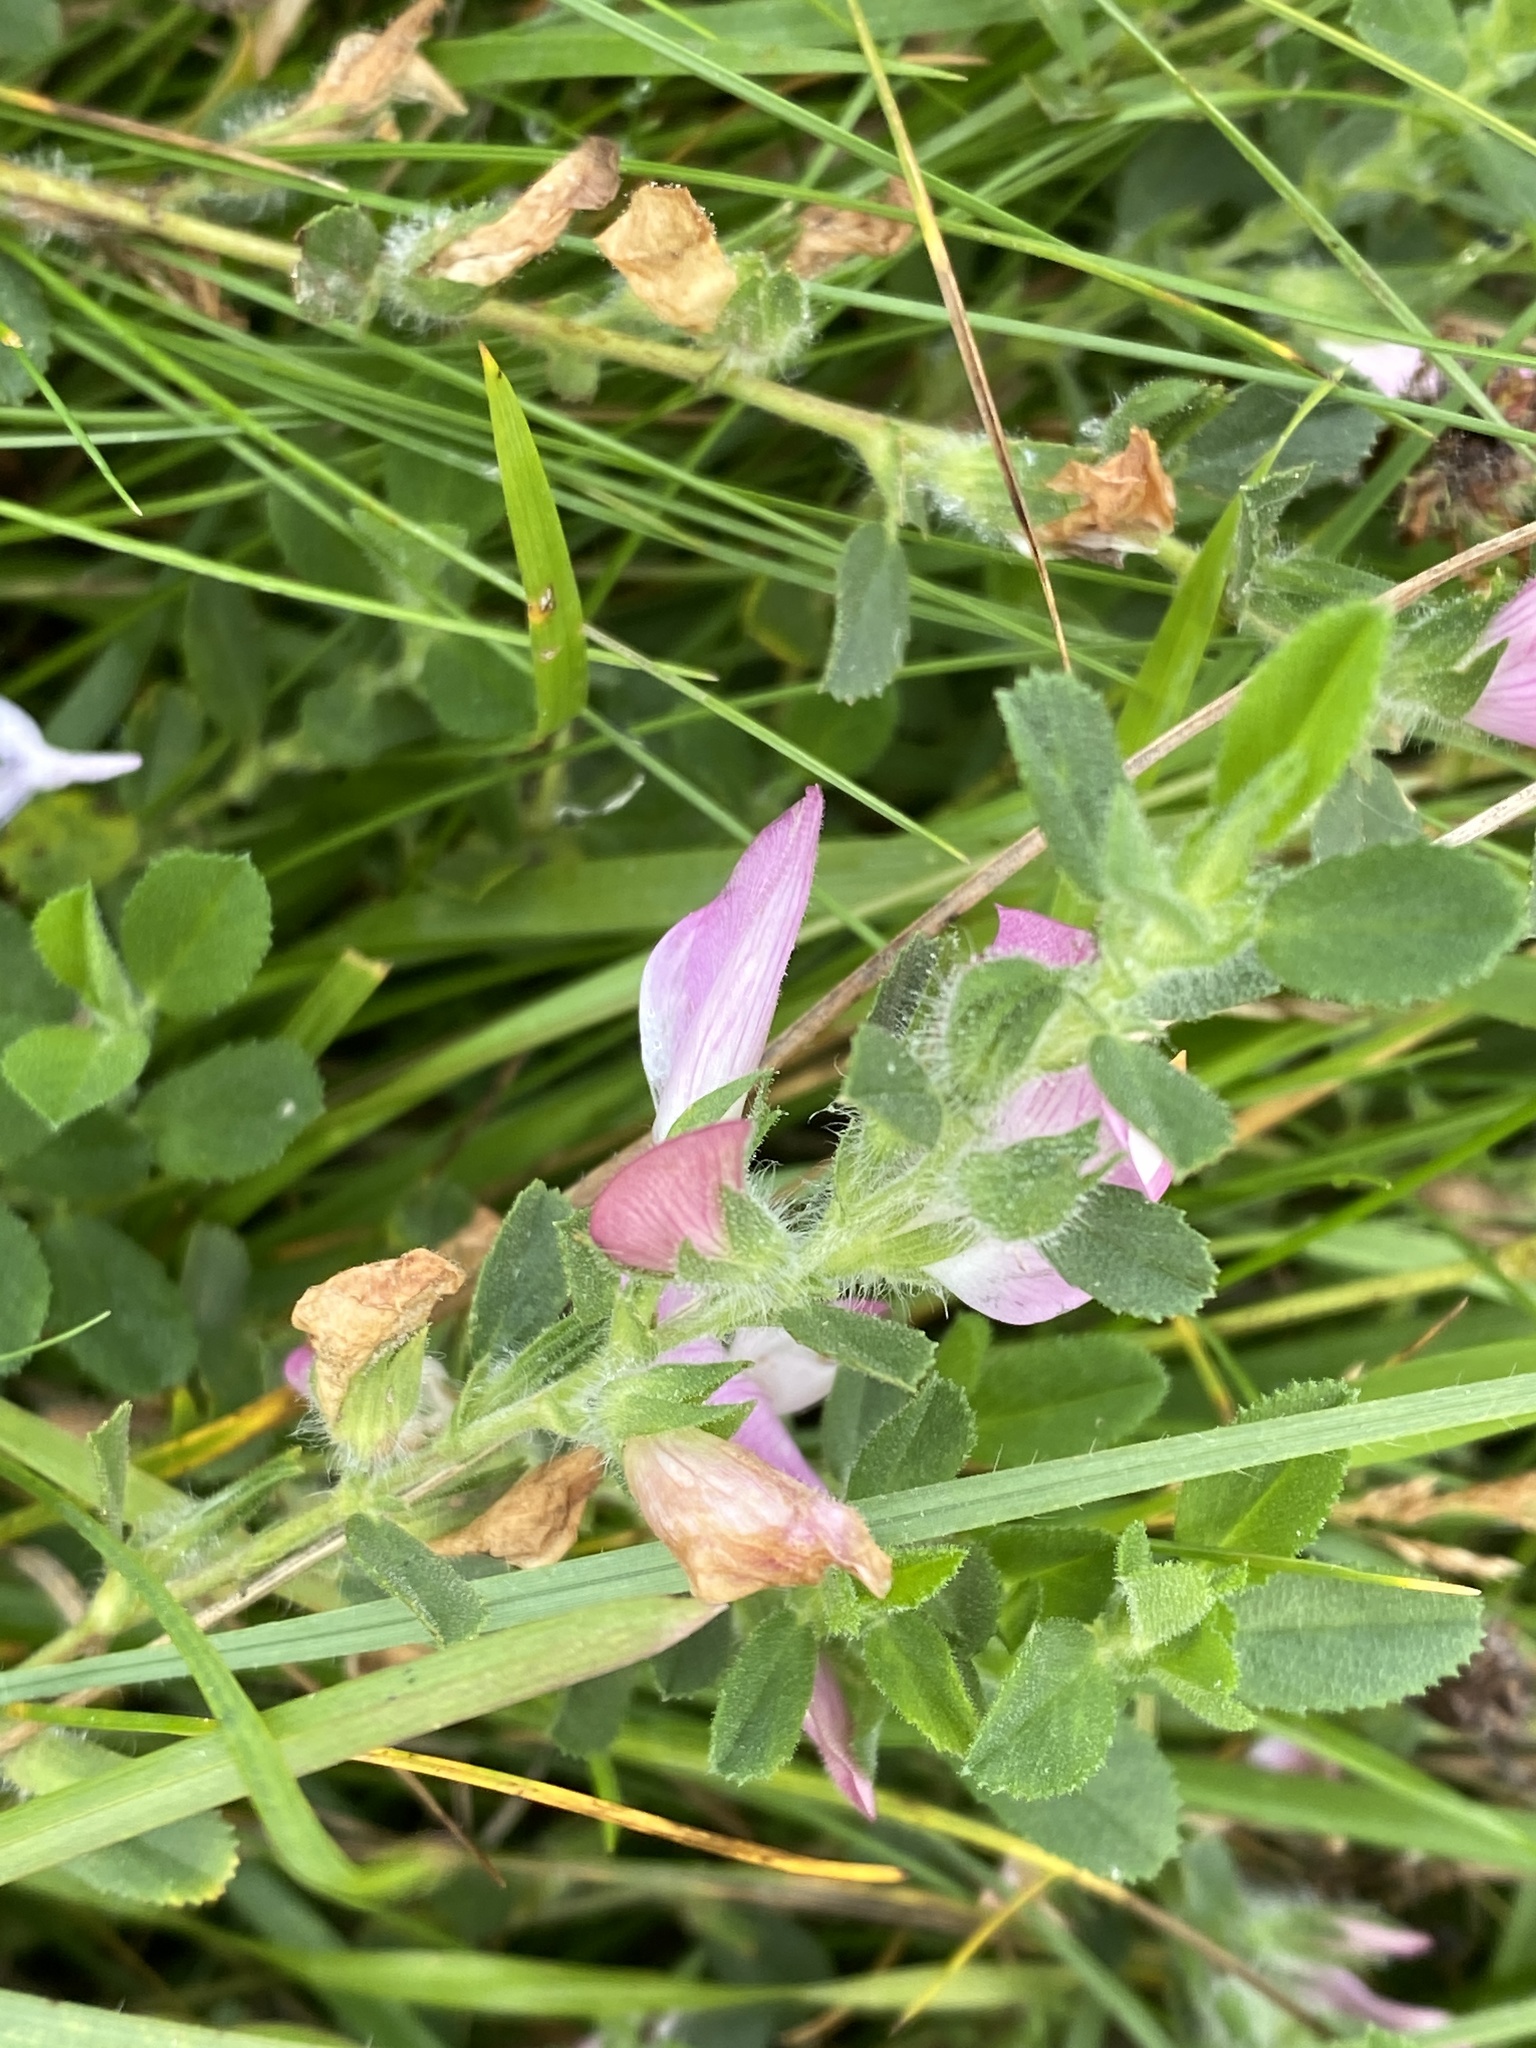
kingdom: Plantae
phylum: Tracheophyta
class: Magnoliopsida
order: Fabales
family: Fabaceae
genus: Ononis
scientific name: Ononis spinosa
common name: Spiny restharrow
